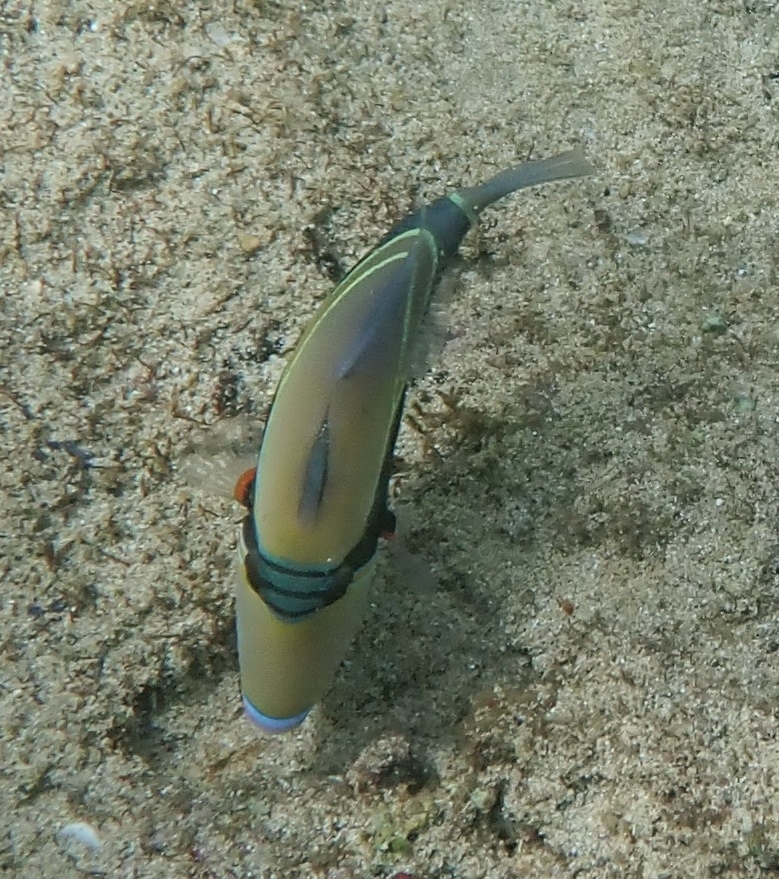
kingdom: Animalia
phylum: Chordata
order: Tetraodontiformes
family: Balistidae
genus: Rhinecanthus
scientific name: Rhinecanthus rectangulus
